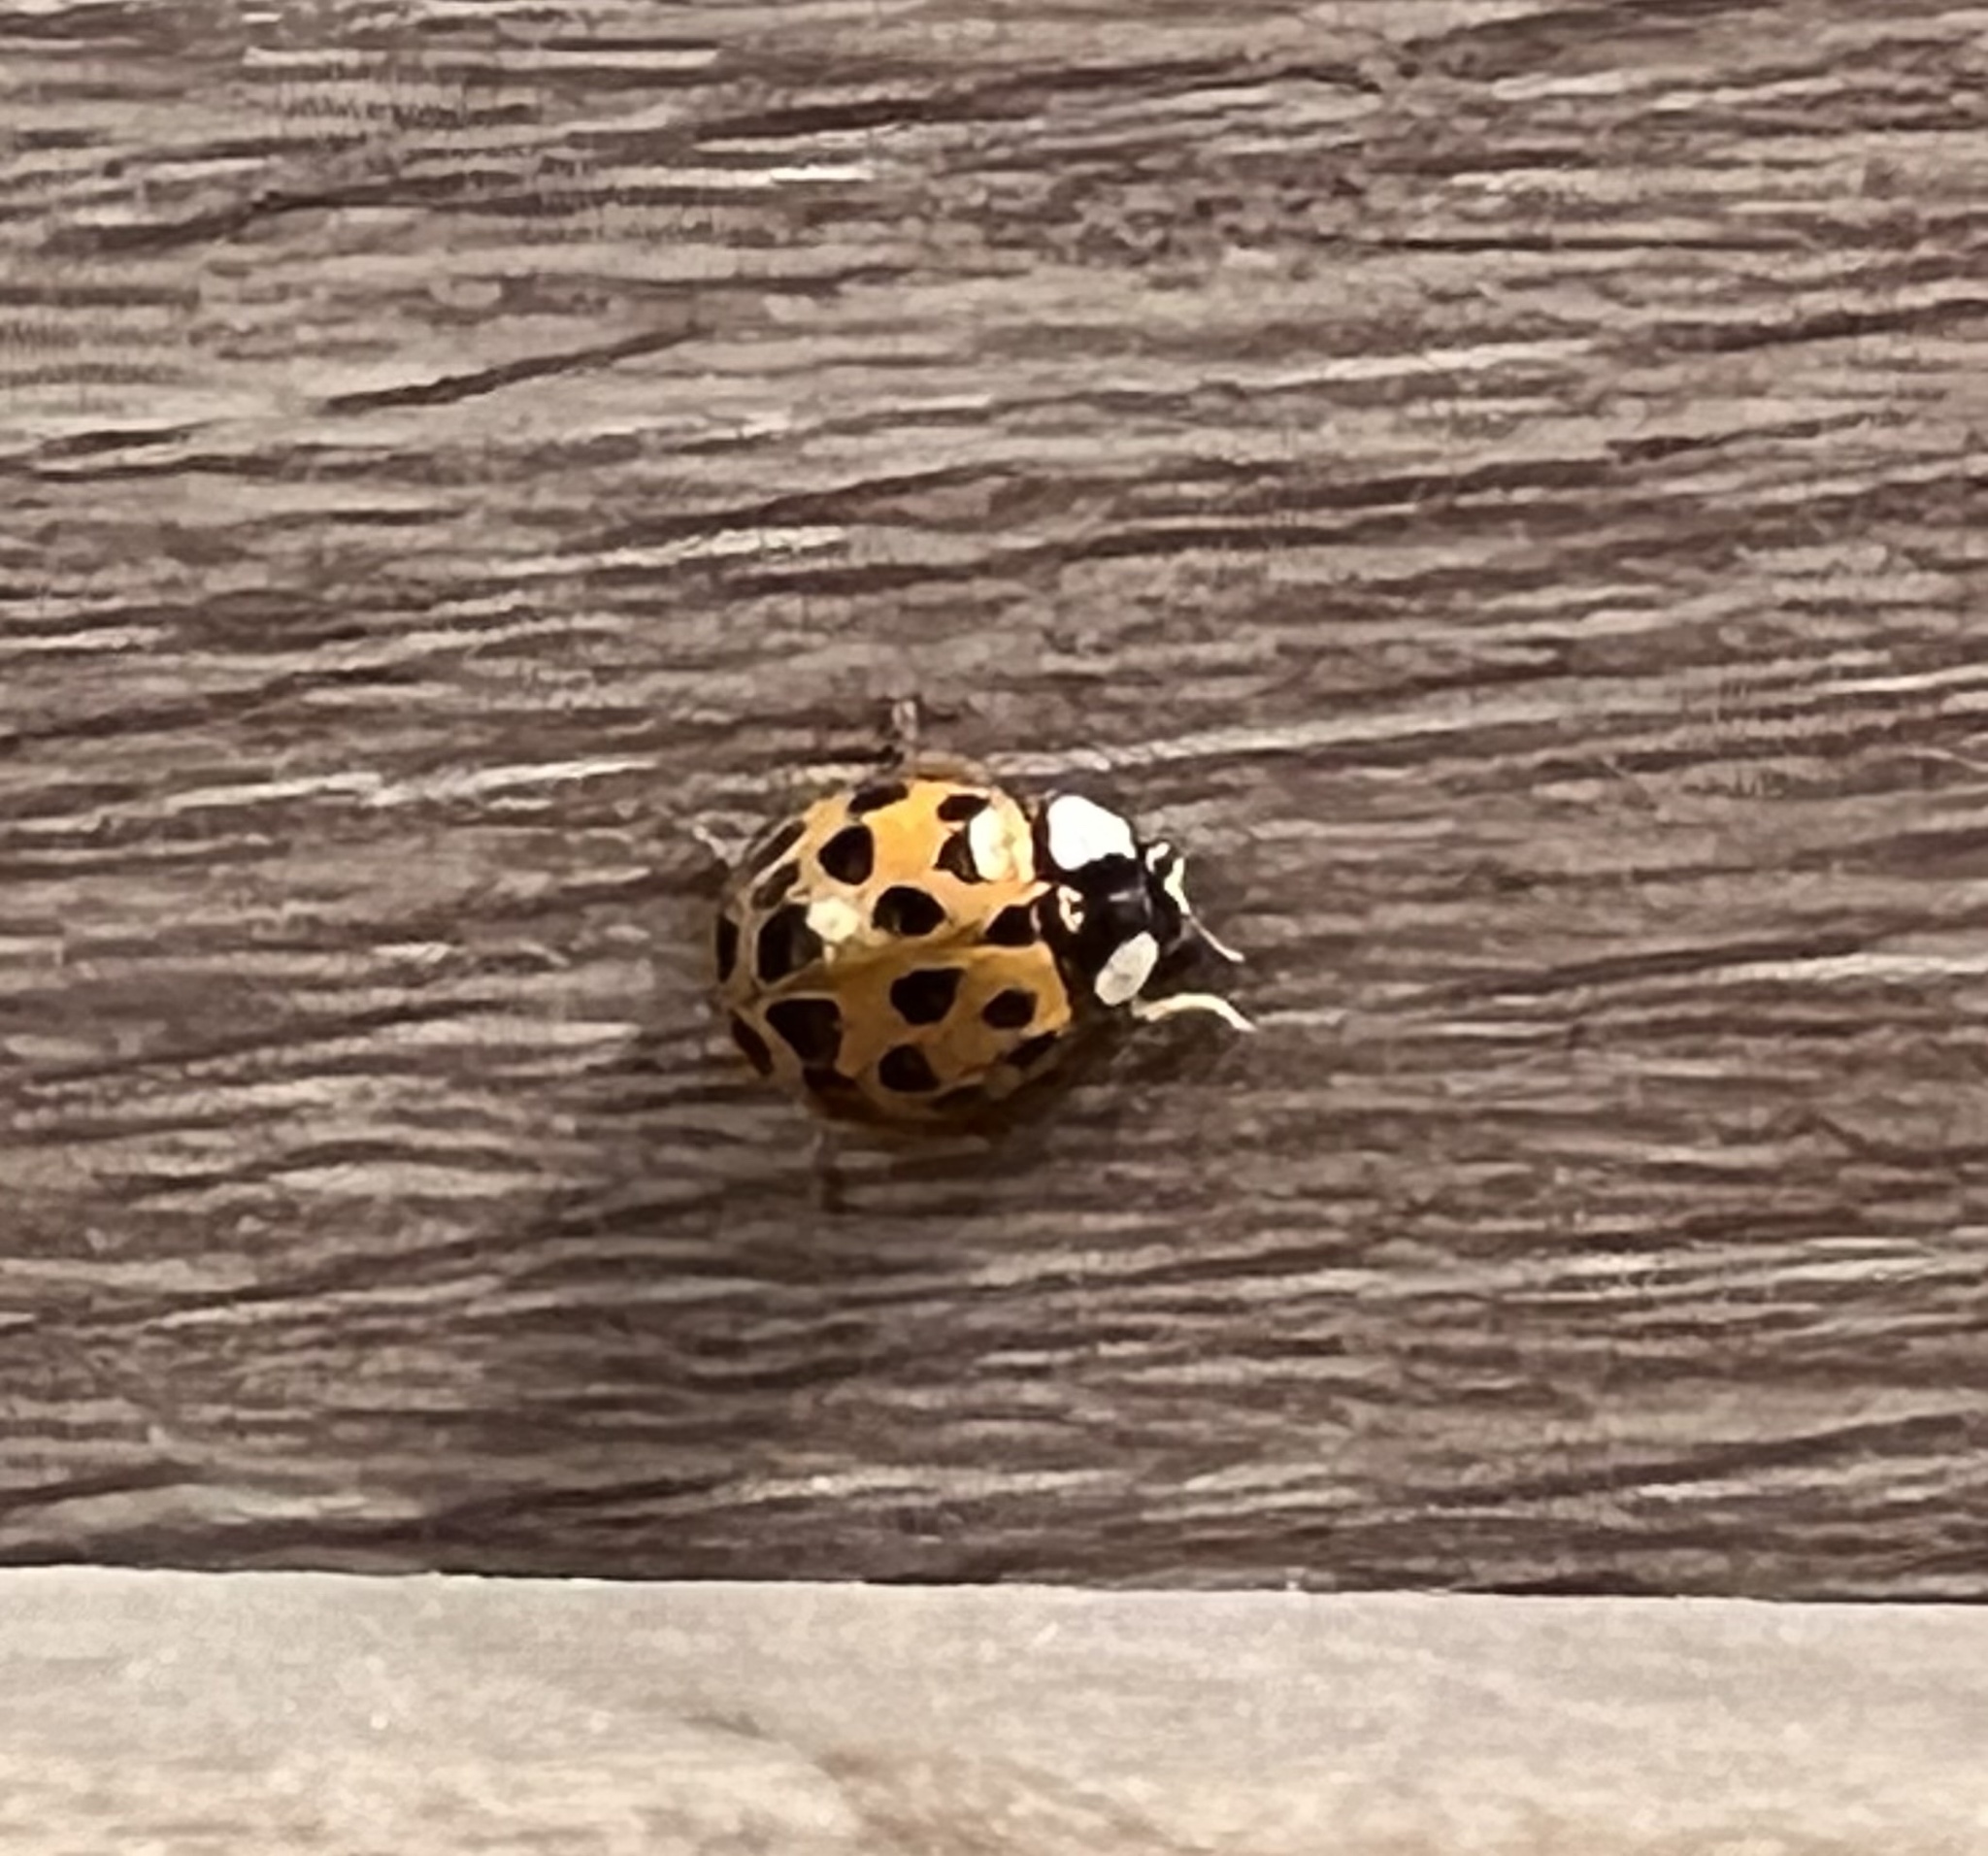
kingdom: Animalia
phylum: Arthropoda
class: Insecta
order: Coleoptera
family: Coccinellidae
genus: Harmonia
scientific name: Harmonia axyridis
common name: Harlequin ladybird
